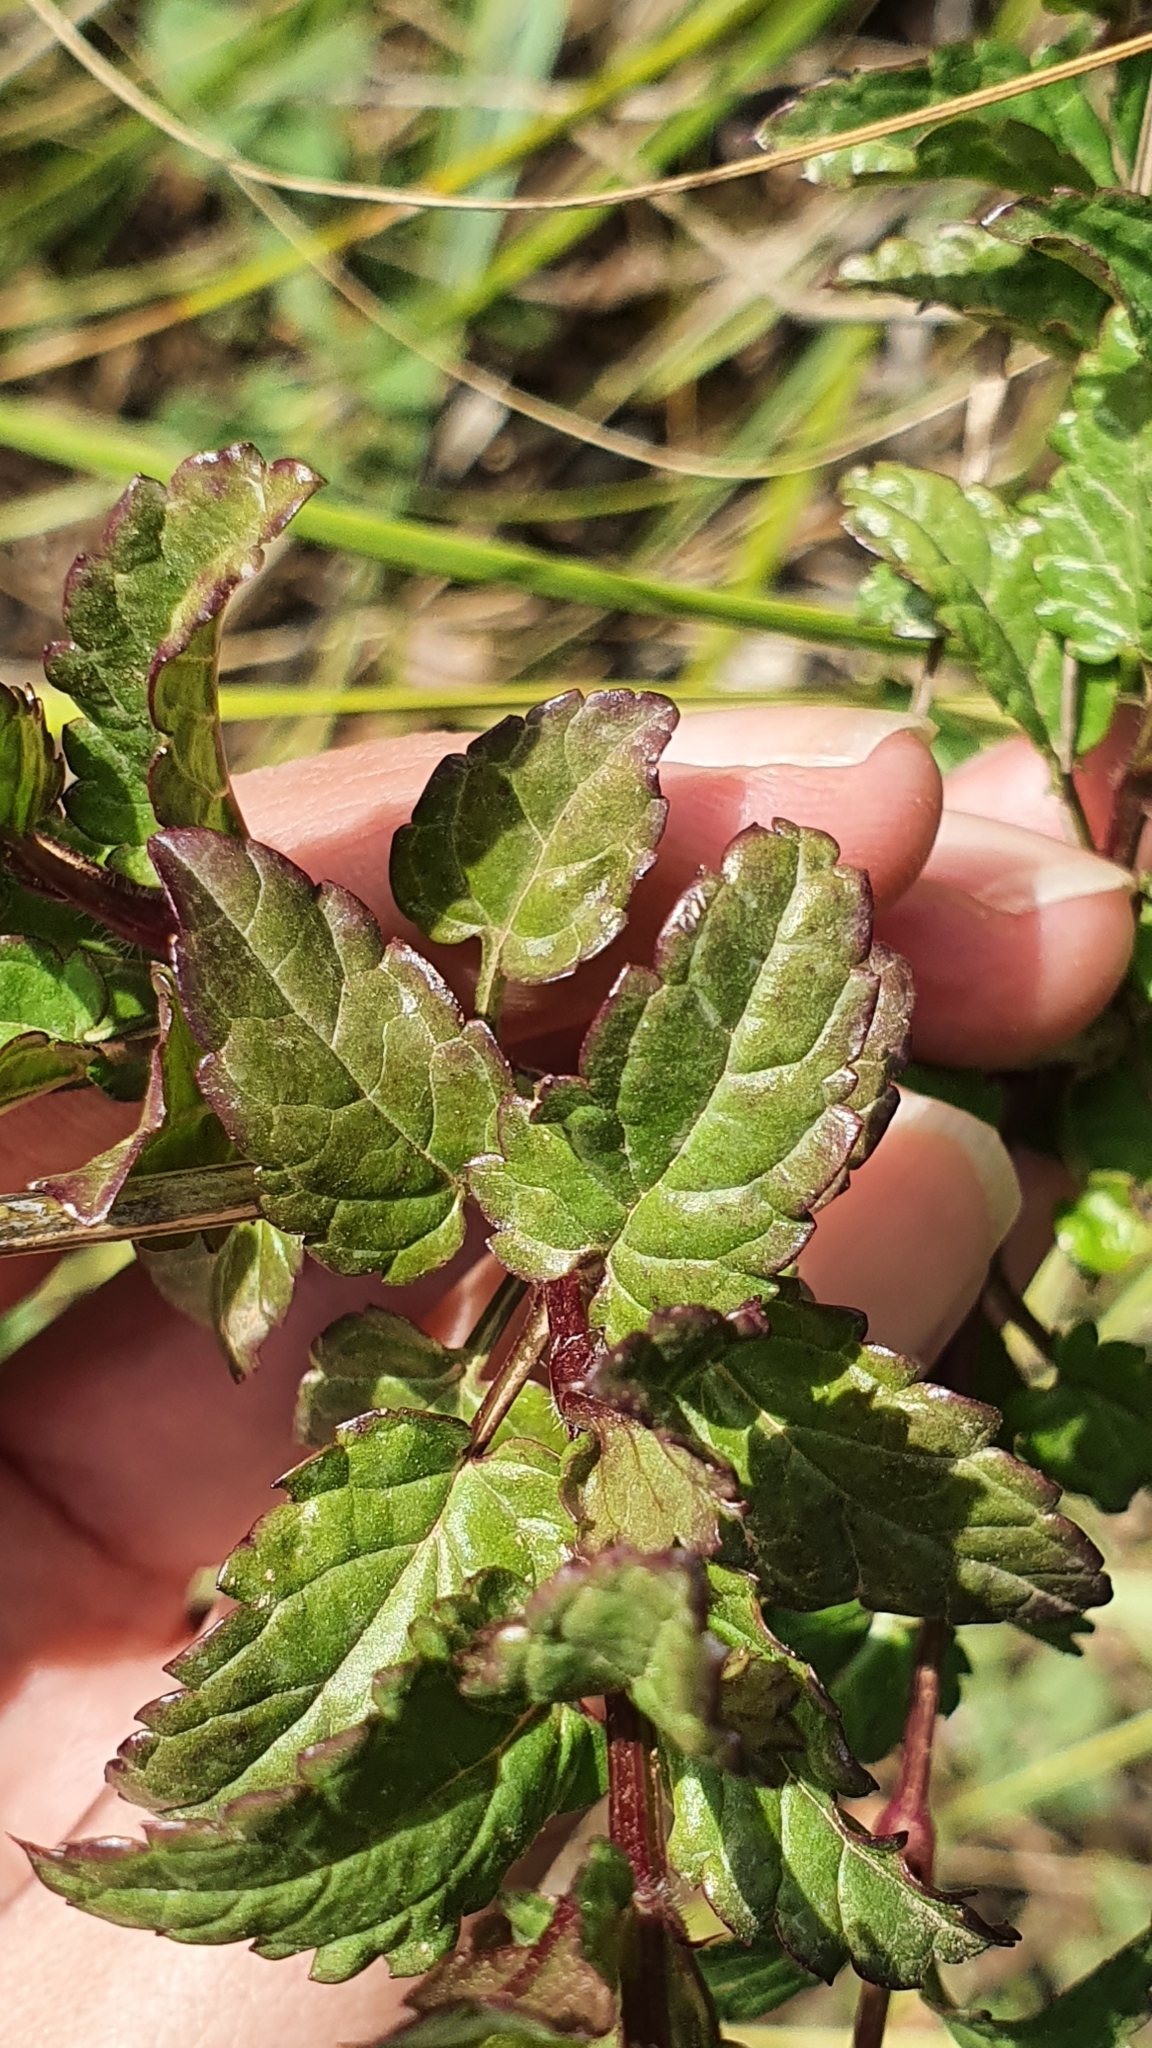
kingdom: Plantae
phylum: Tracheophyta
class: Magnoliopsida
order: Lamiales
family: Lamiaceae
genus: Prasium
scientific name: Prasium majus
